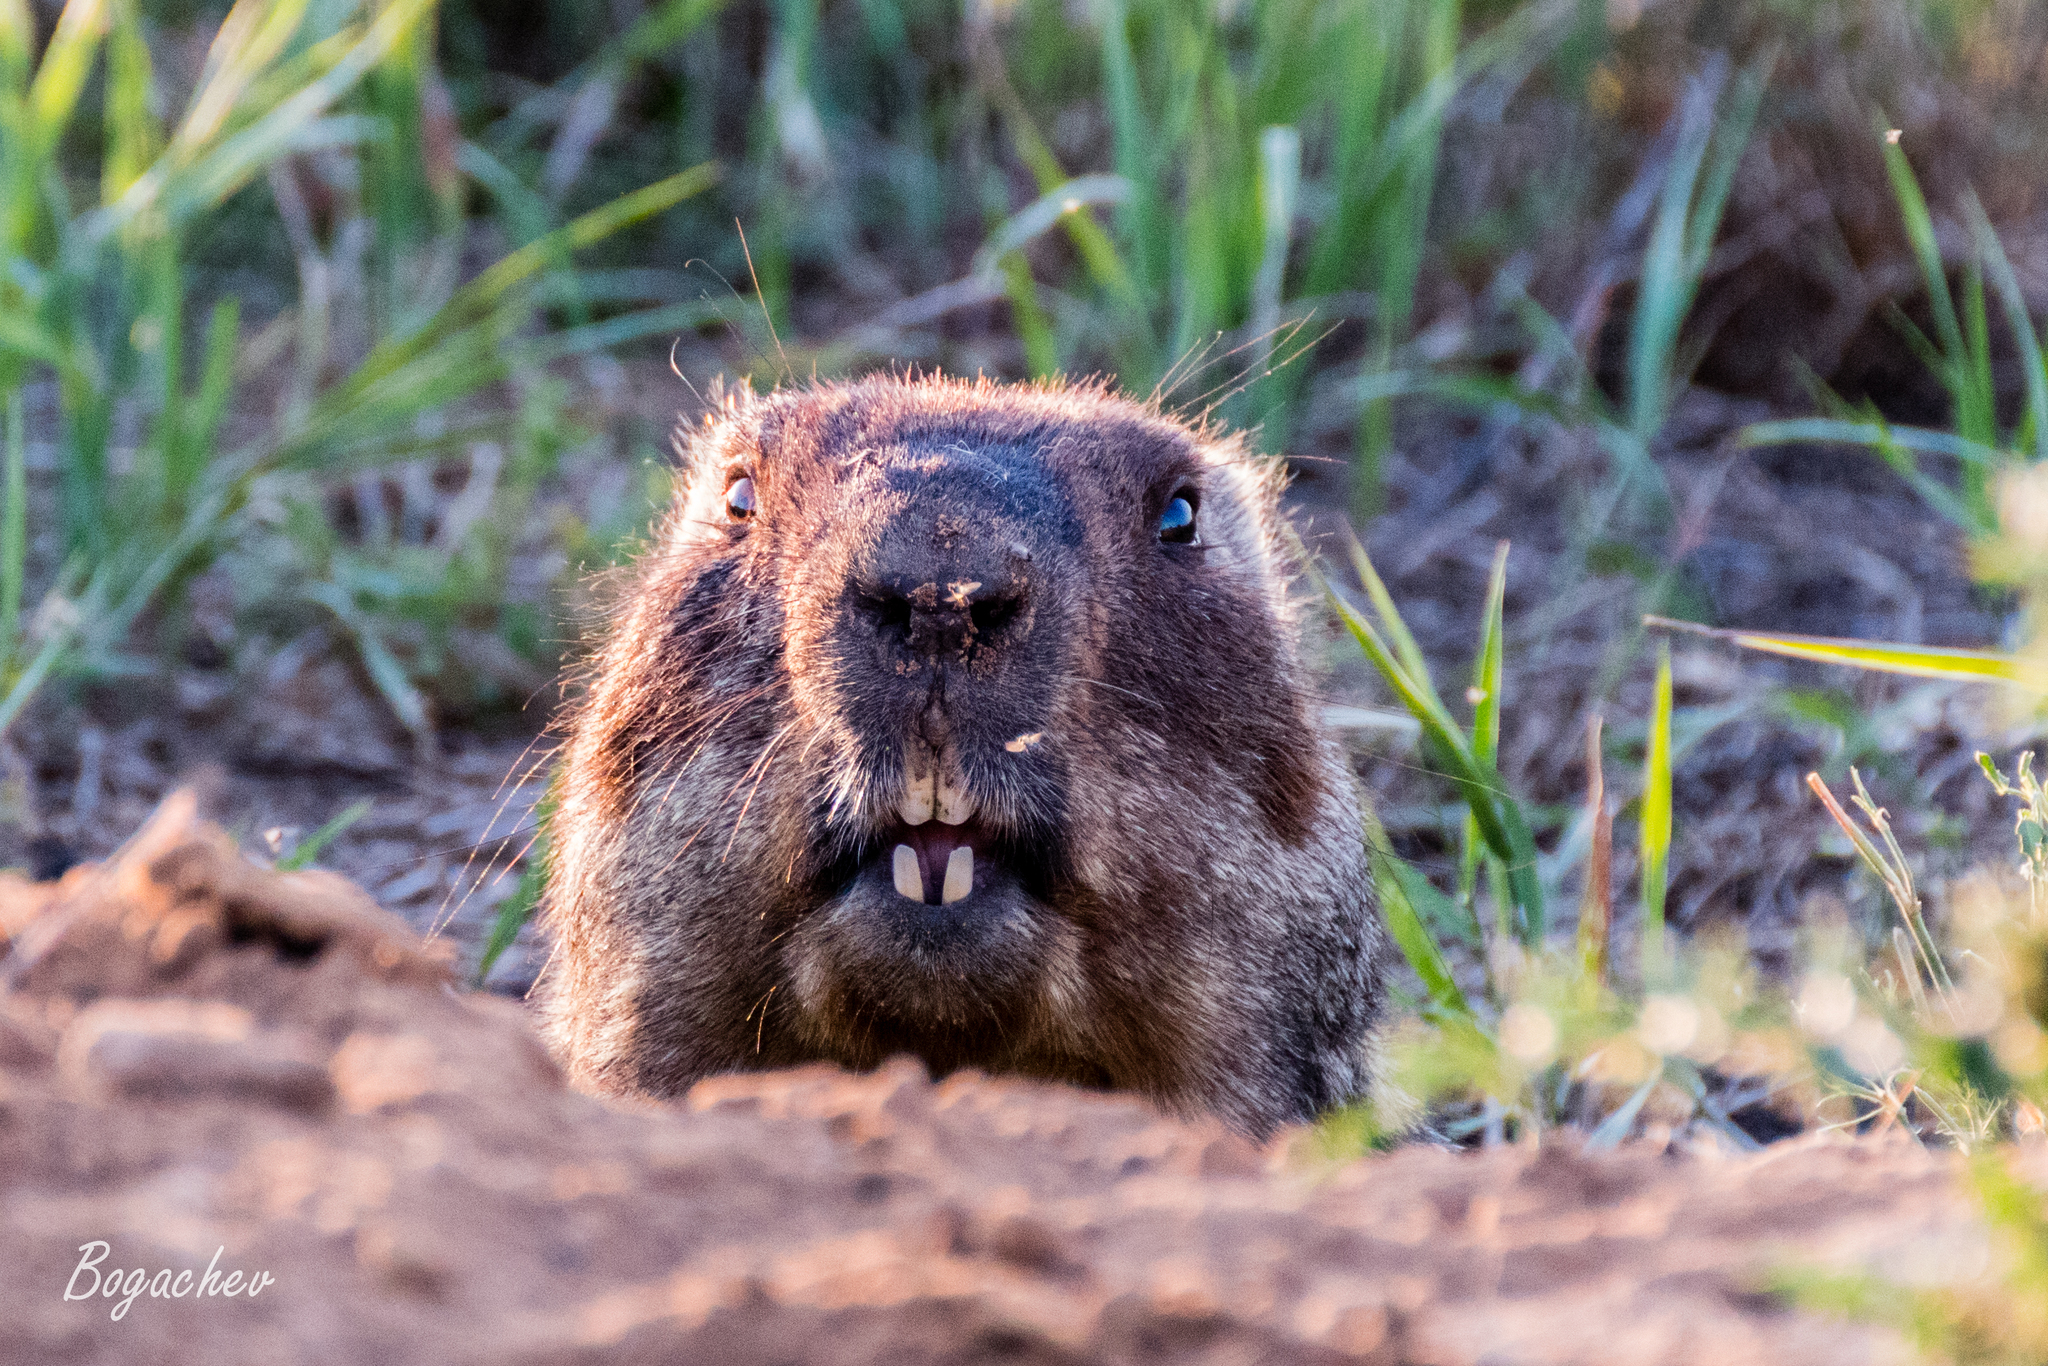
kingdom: Animalia
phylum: Chordata
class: Mammalia
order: Rodentia
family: Sciuridae
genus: Marmota
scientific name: Marmota bobak
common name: Bobak marmot
